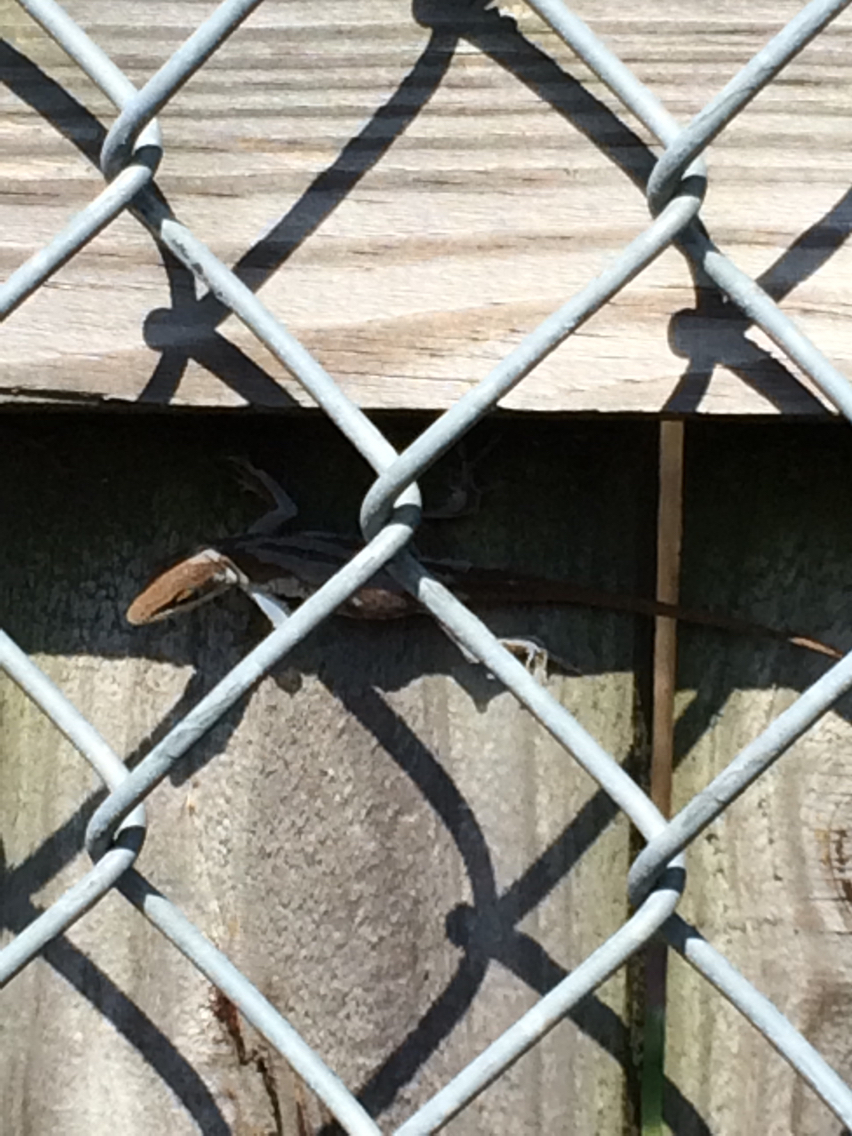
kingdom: Animalia
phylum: Chordata
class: Squamata
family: Dactyloidae
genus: Anolis
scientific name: Anolis carolinensis
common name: Green anole
